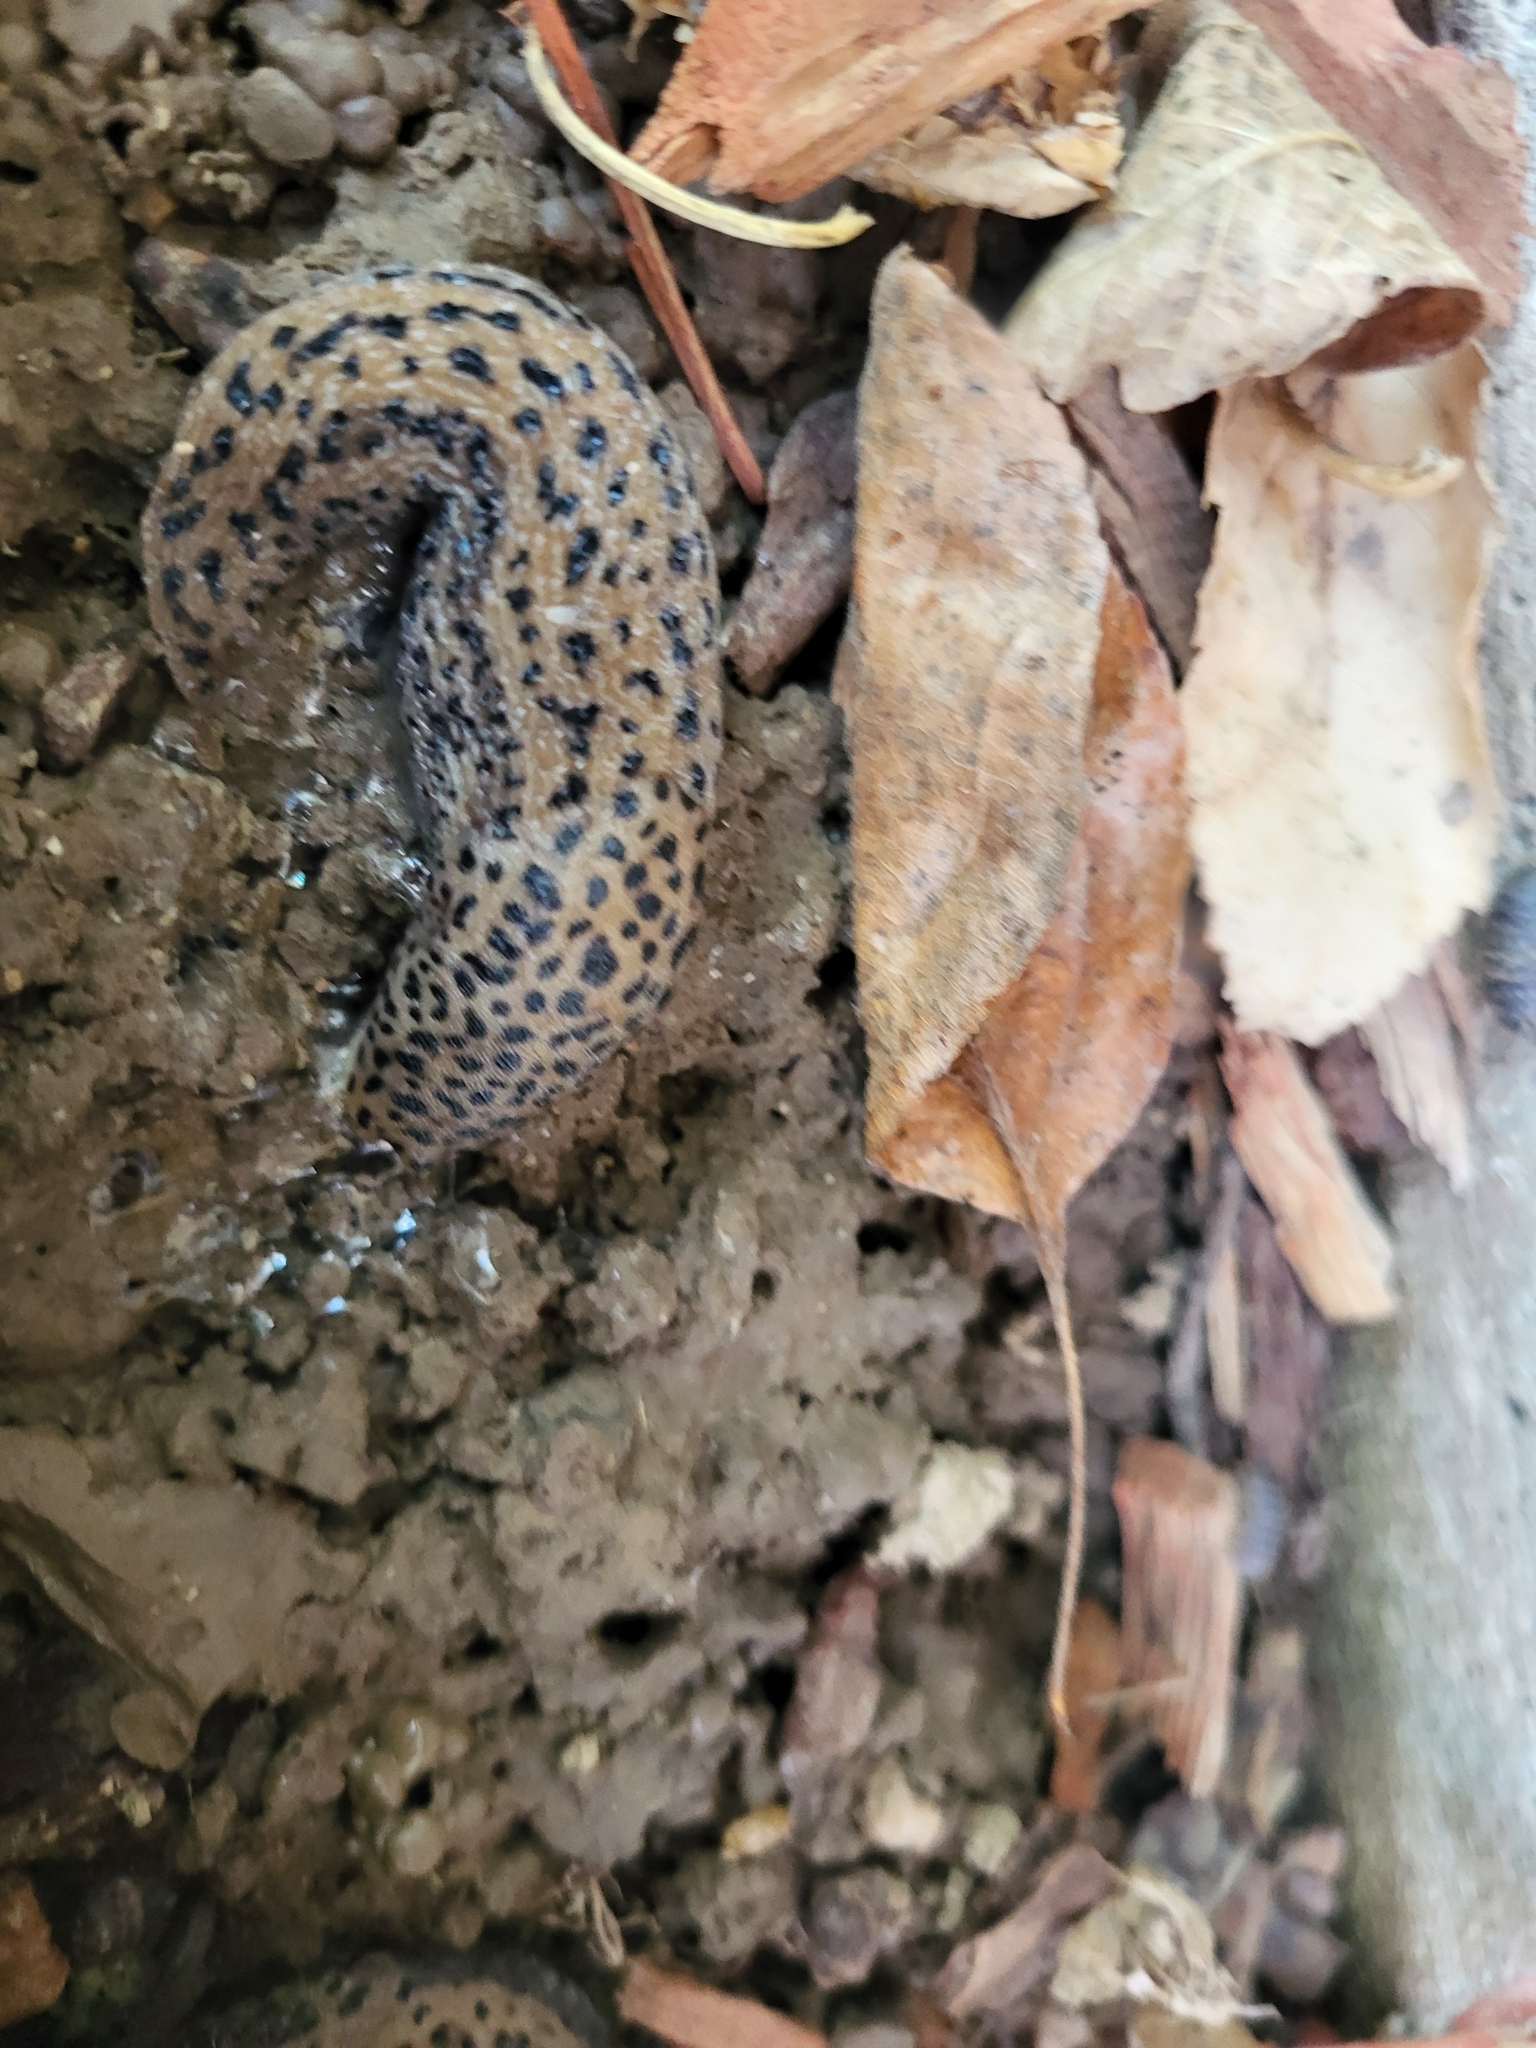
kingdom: Animalia
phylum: Mollusca
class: Gastropoda
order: Stylommatophora
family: Limacidae
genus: Limax
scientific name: Limax maximus
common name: Great grey slug
